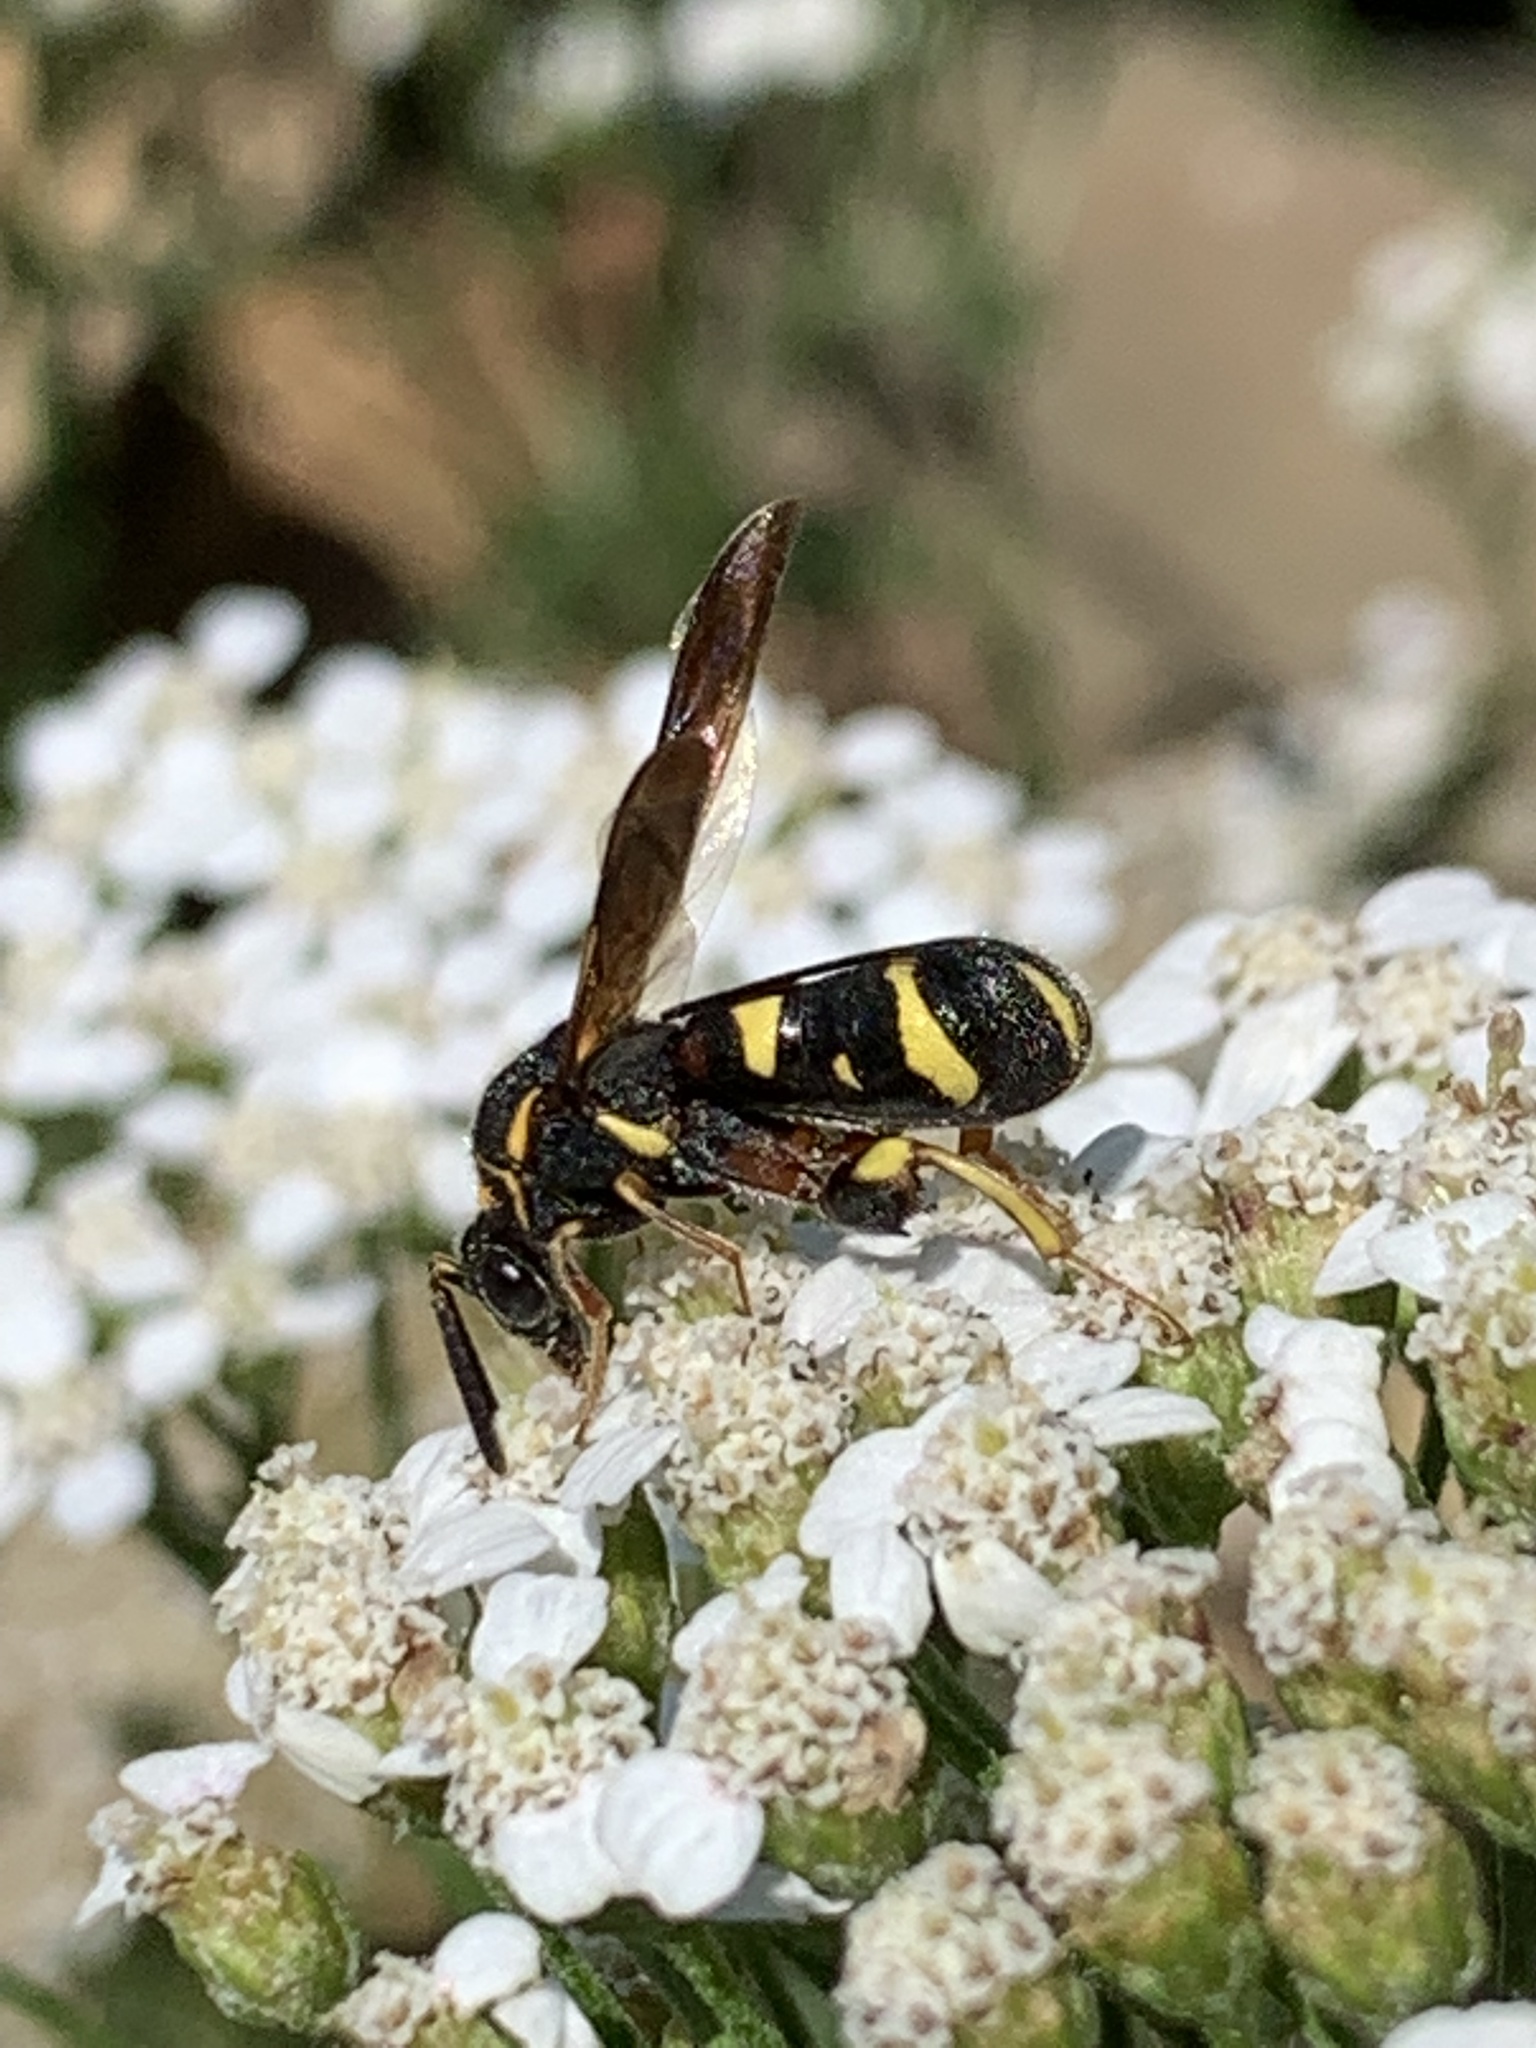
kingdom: Animalia
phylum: Arthropoda
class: Insecta
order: Hymenoptera
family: Leucospidae
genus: Leucospis
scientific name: Leucospis affinis
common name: Wasp
